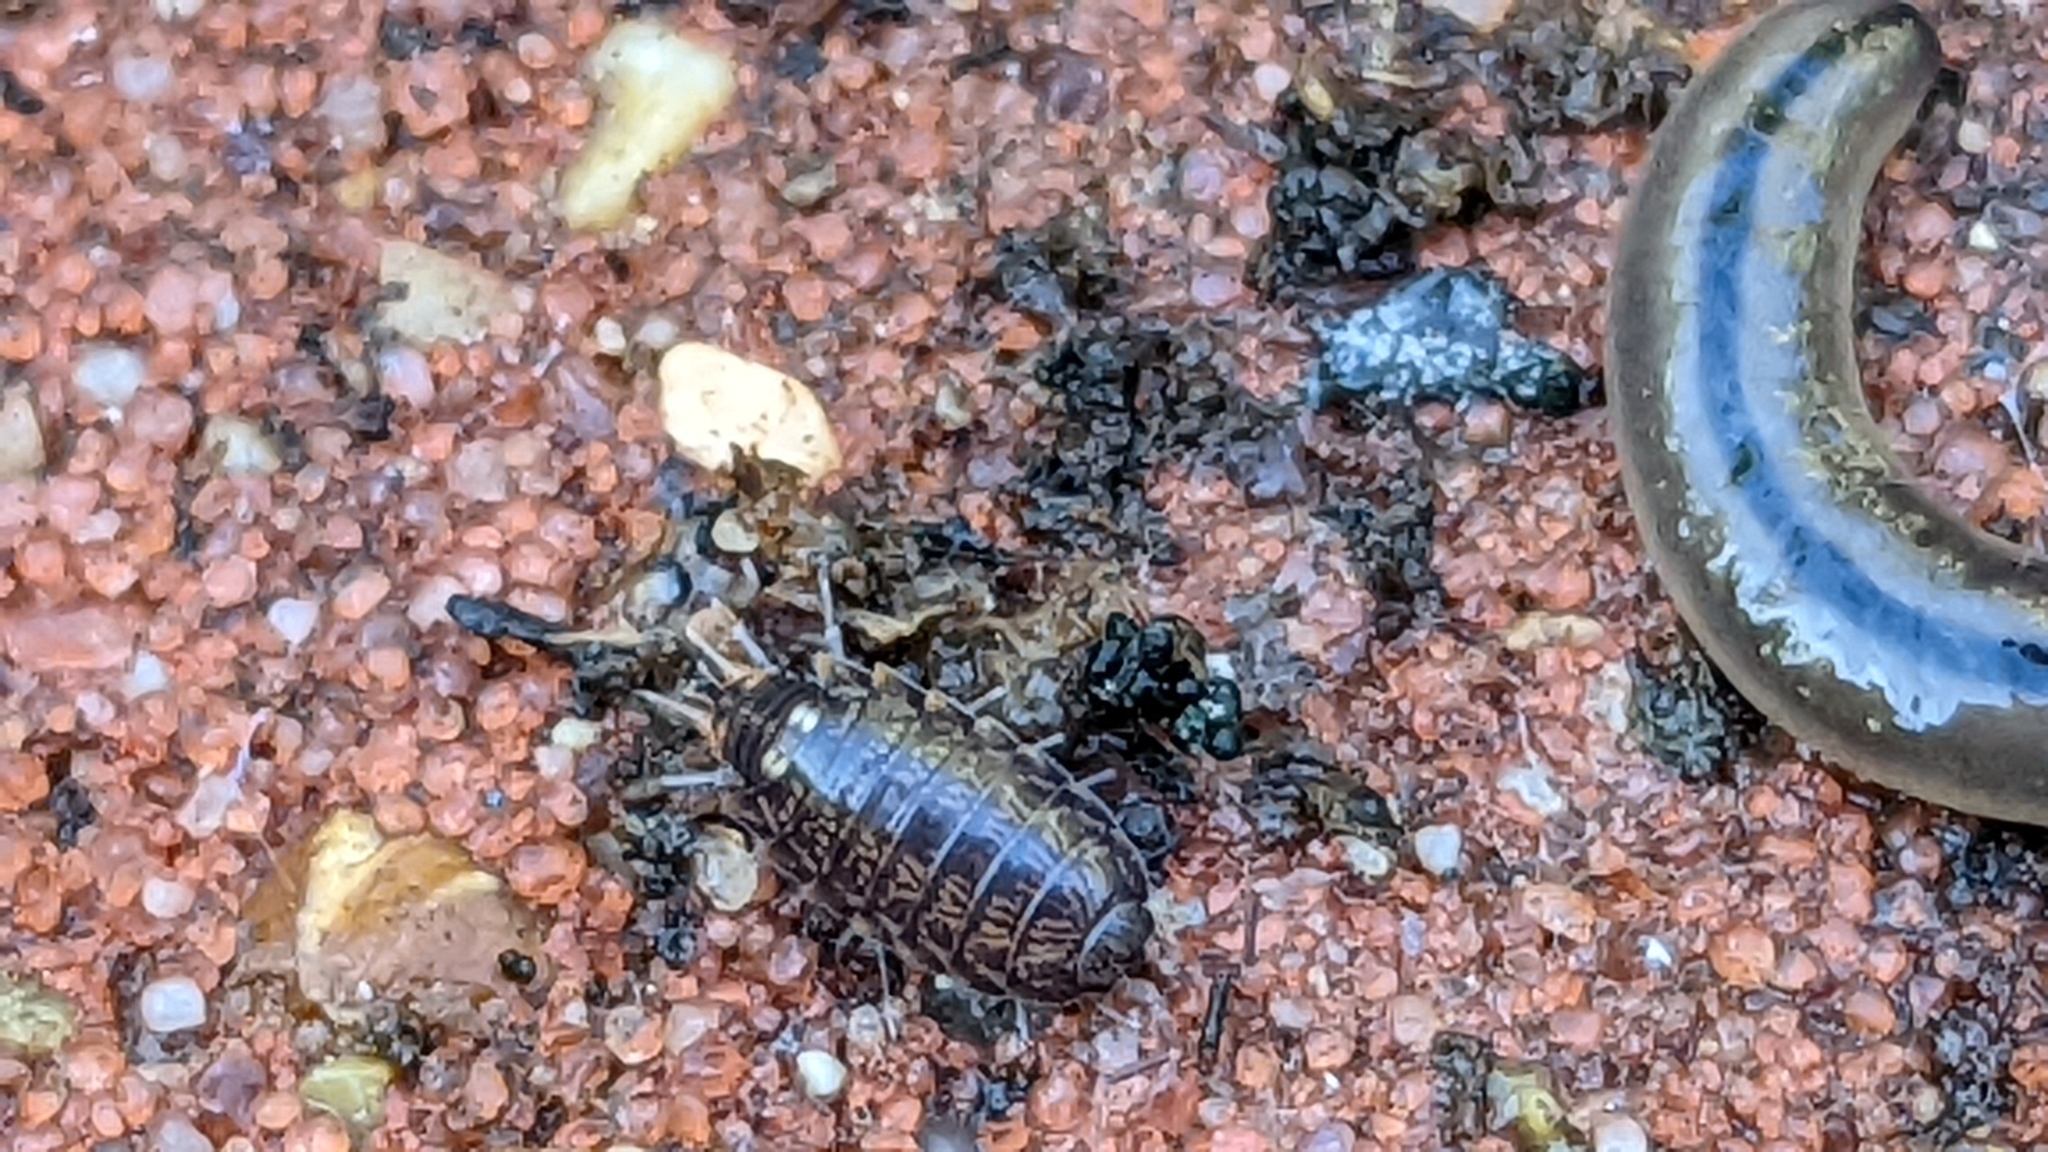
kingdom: Animalia
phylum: Arthropoda
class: Malacostraca
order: Isopoda
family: Philosciidae
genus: Atlantoscia
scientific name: Atlantoscia floridana
